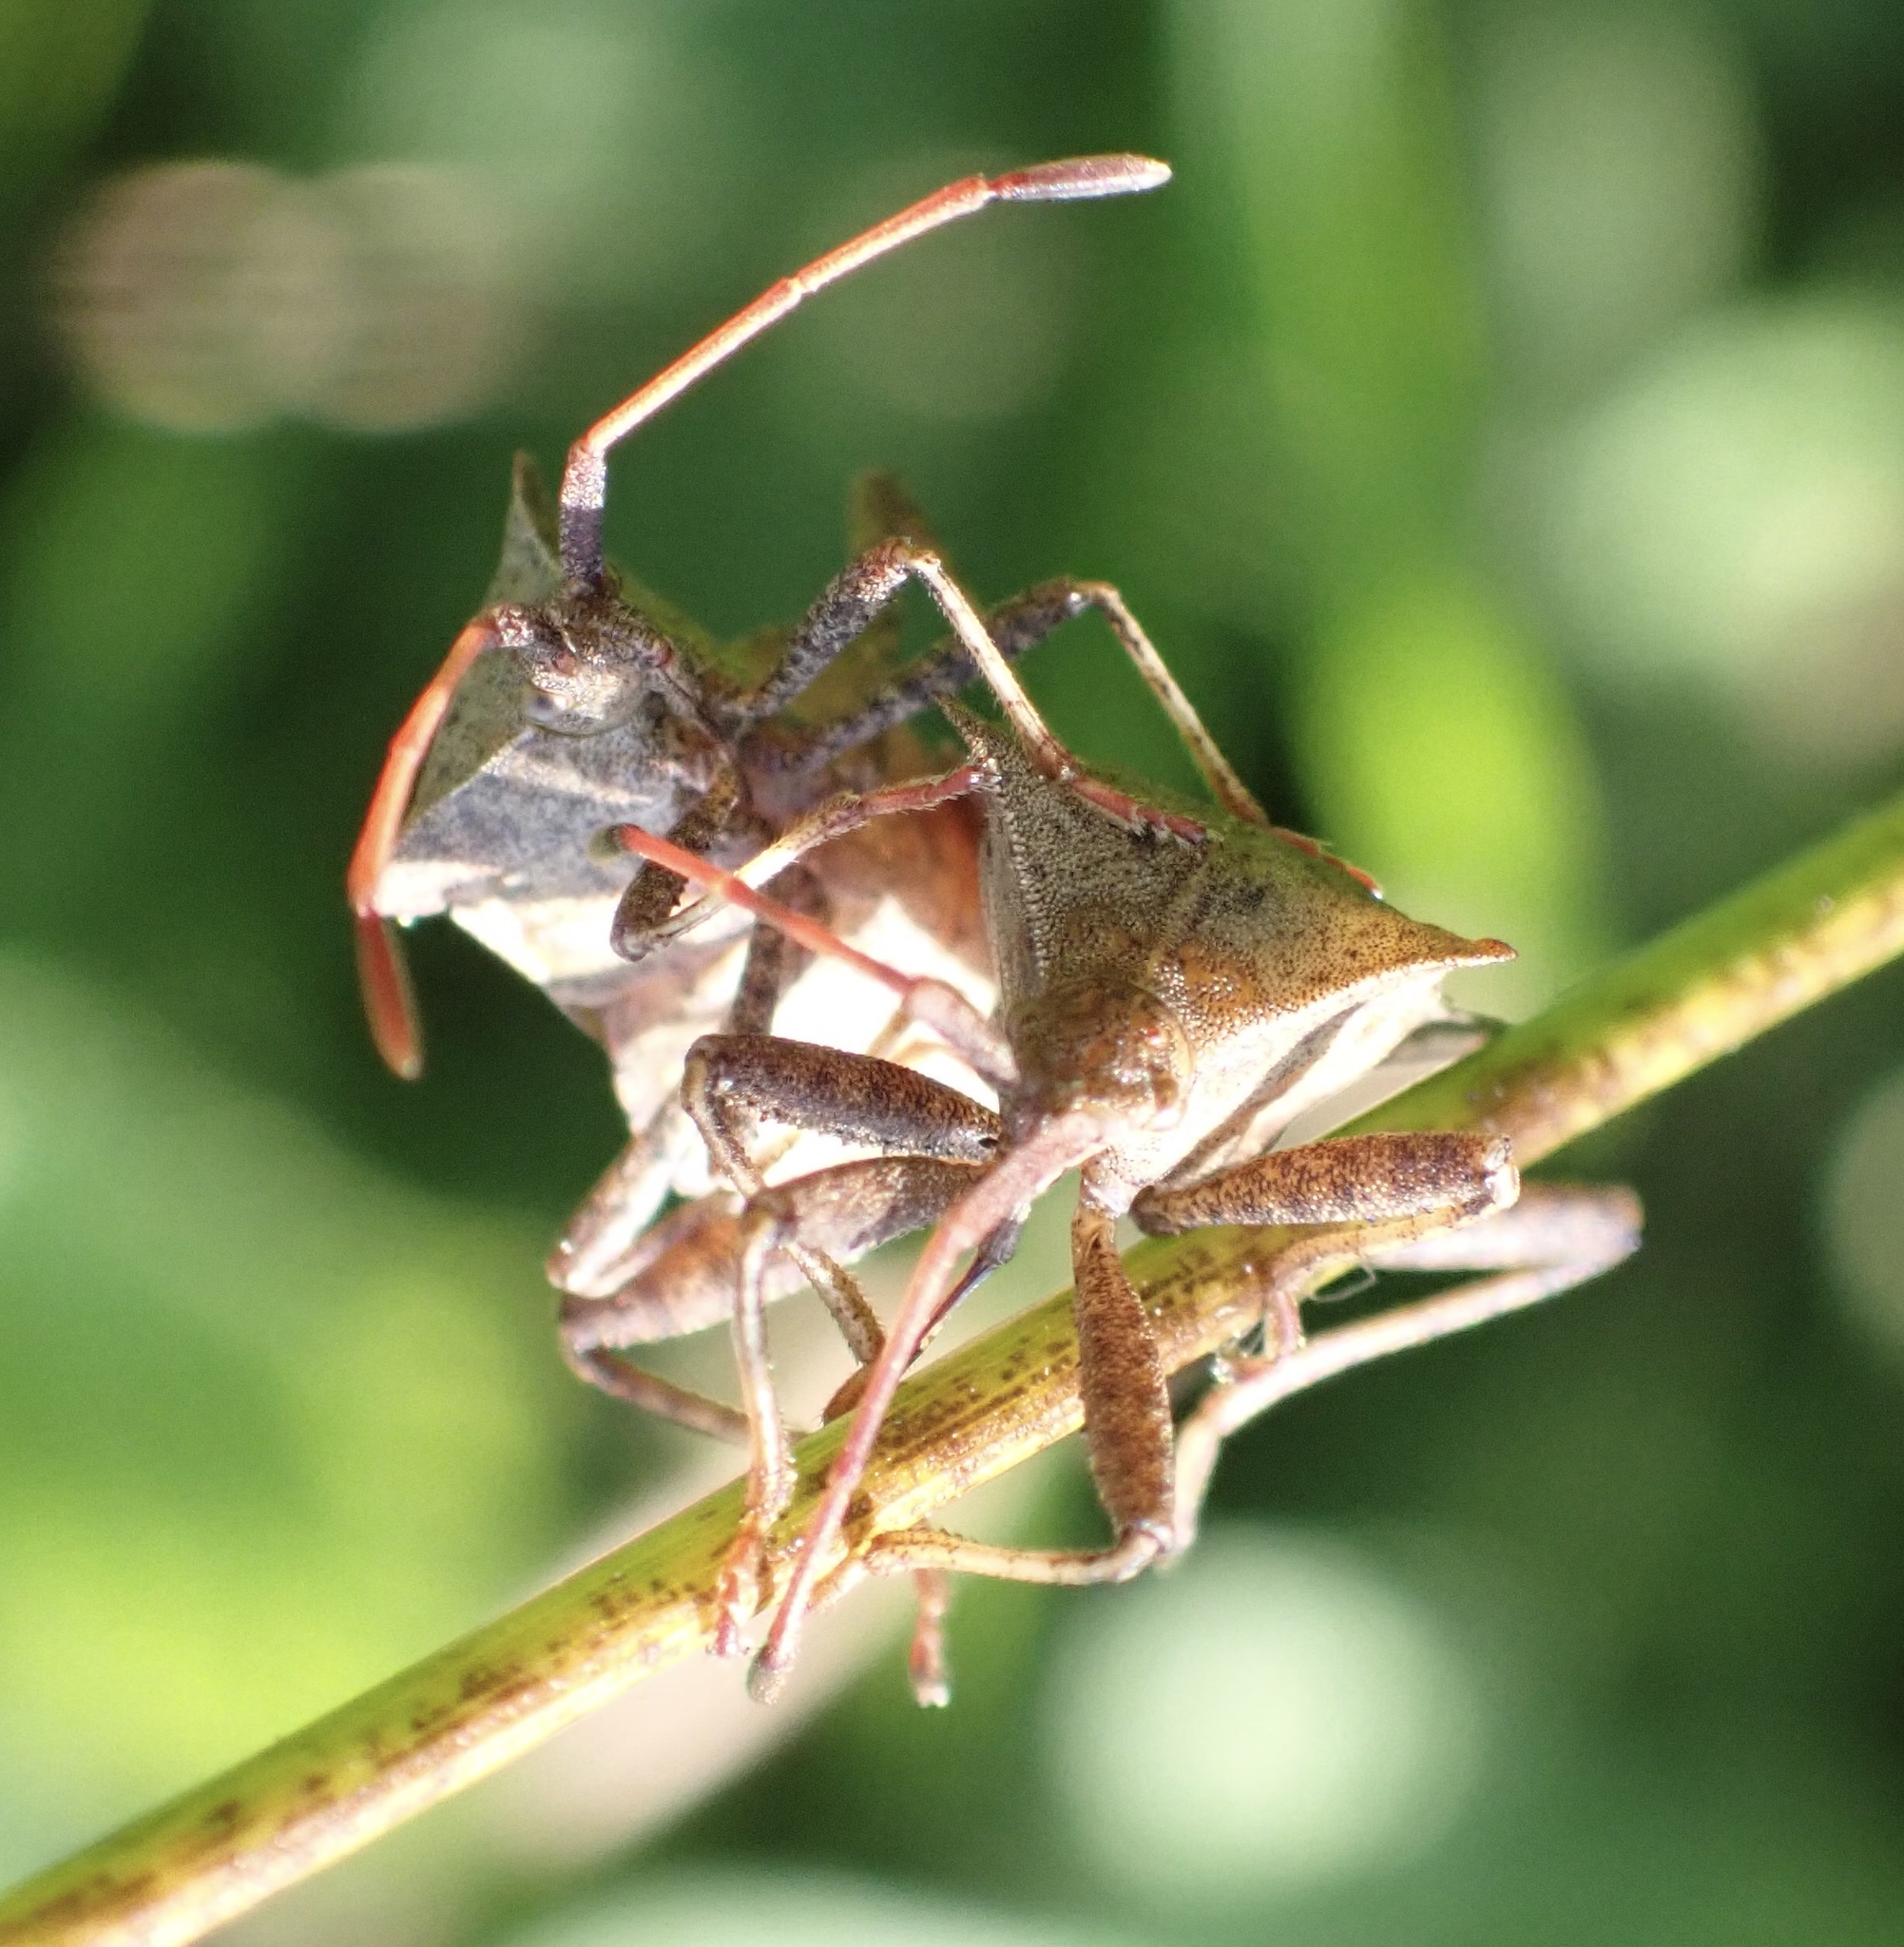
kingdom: Animalia
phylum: Arthropoda
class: Insecta
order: Hemiptera
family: Coreidae
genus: Coreus
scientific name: Coreus marginatus
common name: Dock bug
